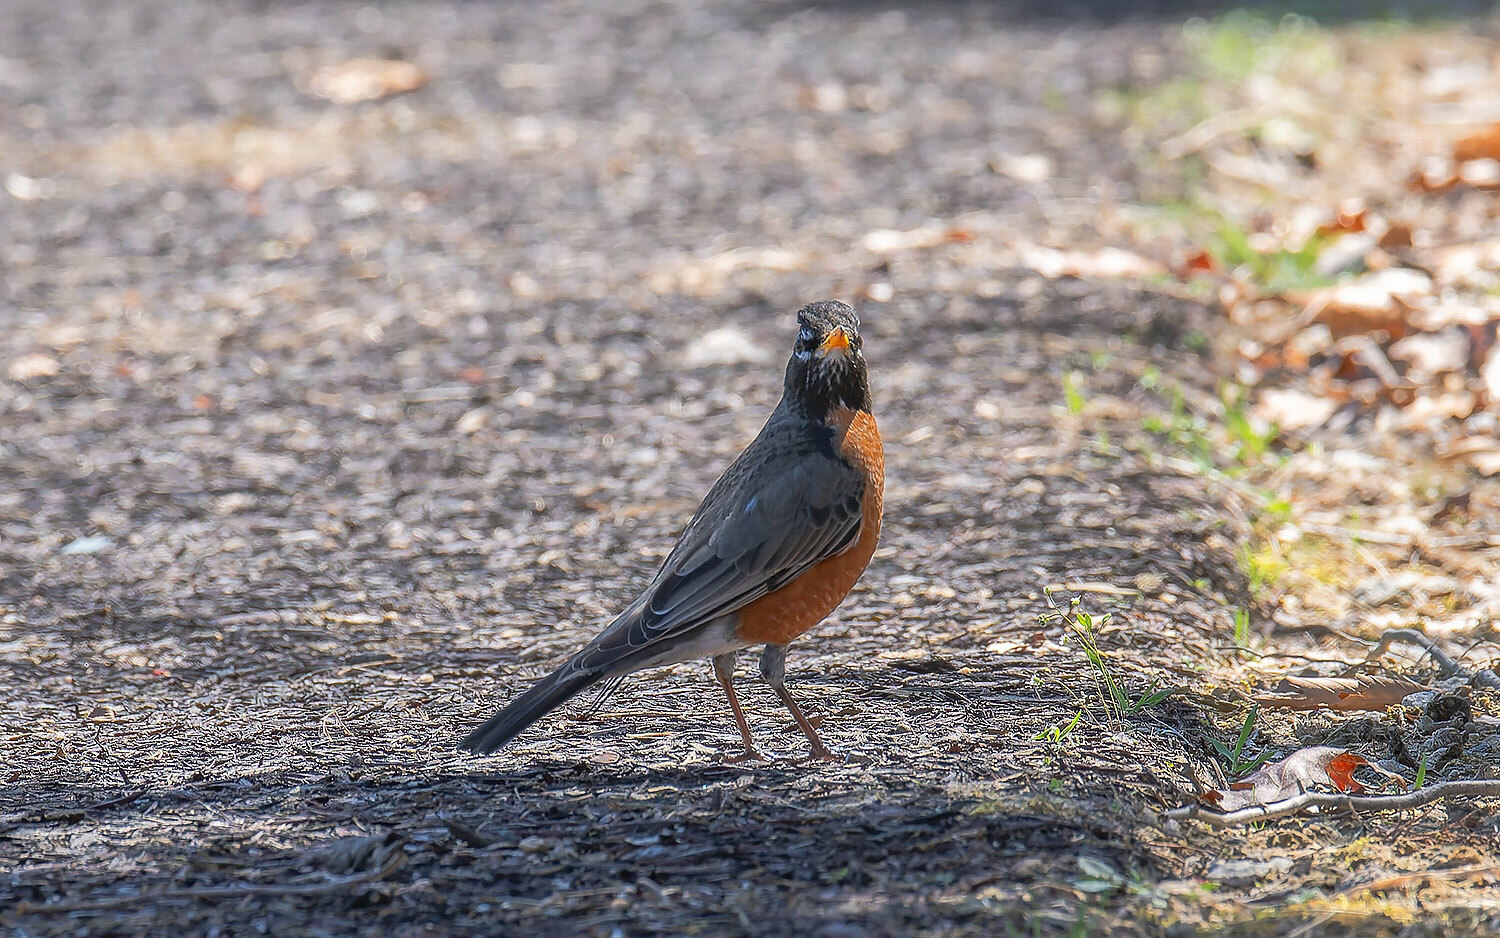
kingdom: Animalia
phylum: Chordata
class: Aves
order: Passeriformes
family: Turdidae
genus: Turdus
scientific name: Turdus migratorius
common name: American robin
